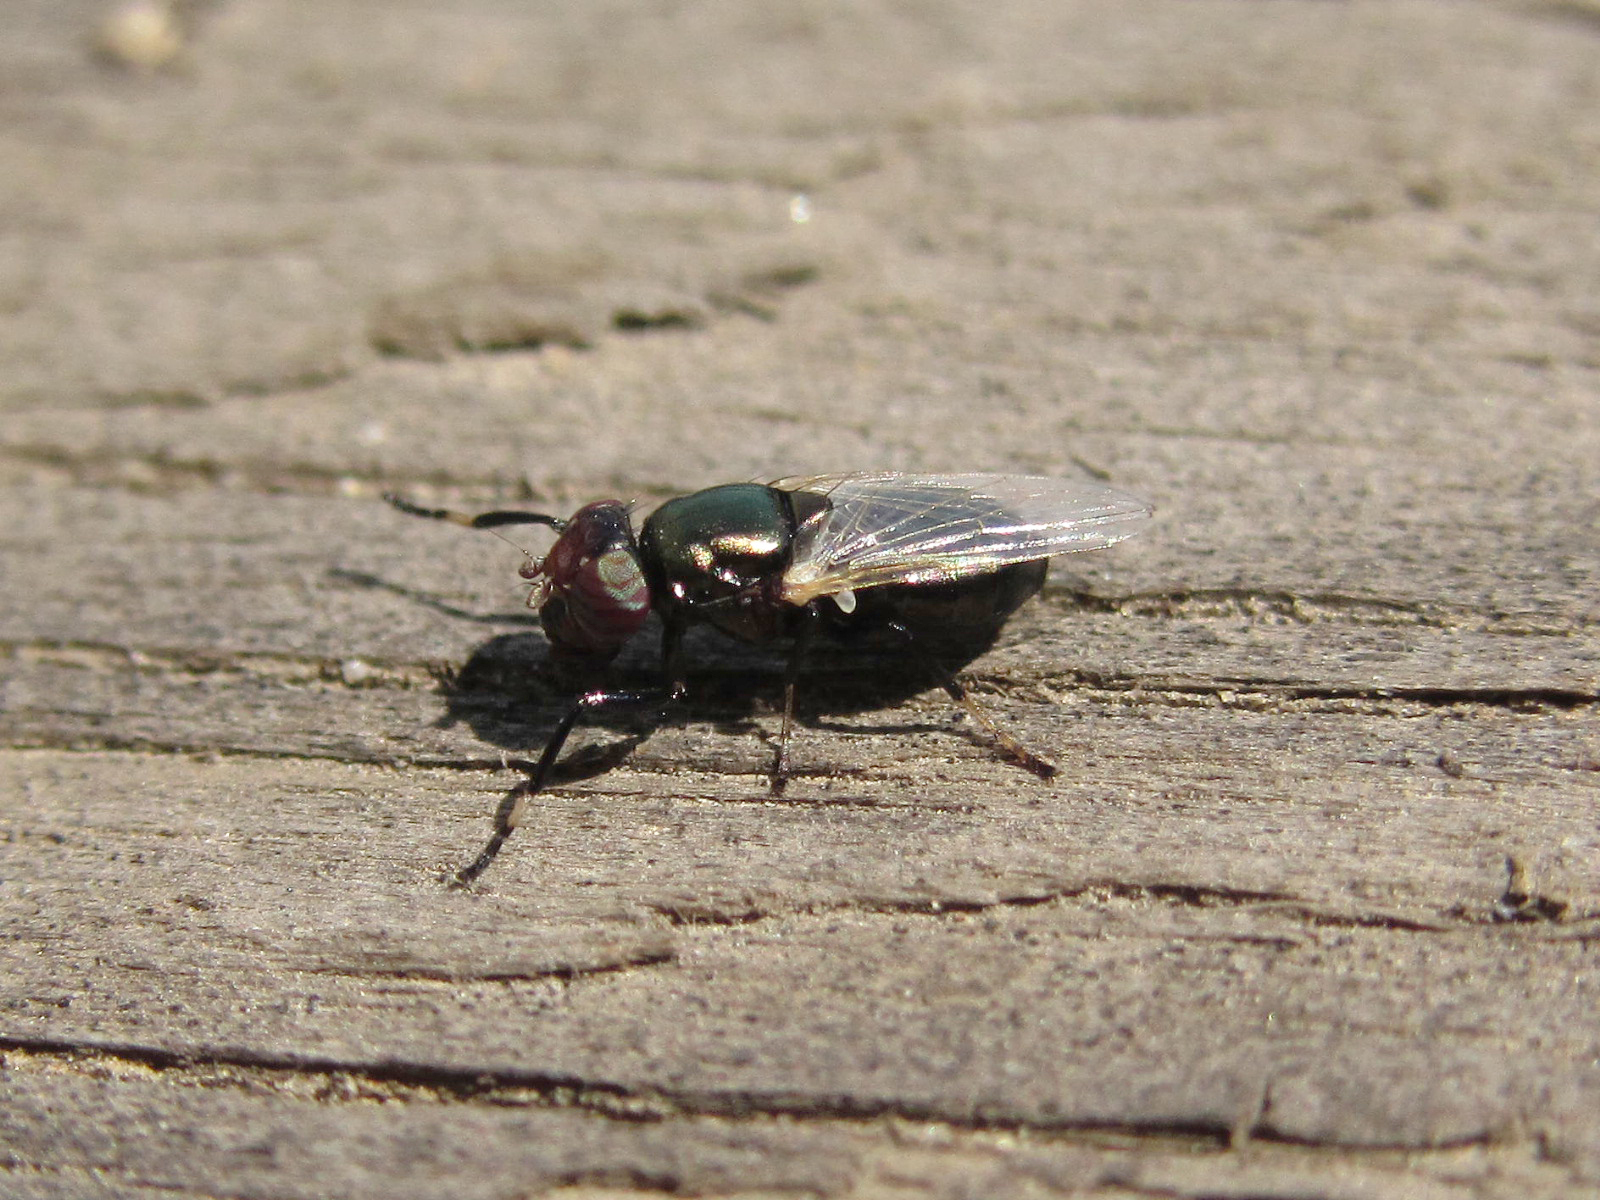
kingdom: Animalia
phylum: Arthropoda
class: Insecta
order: Diptera
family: Ulidiidae
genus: Physiphora
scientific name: Physiphora alceae
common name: Picture-winged fly
